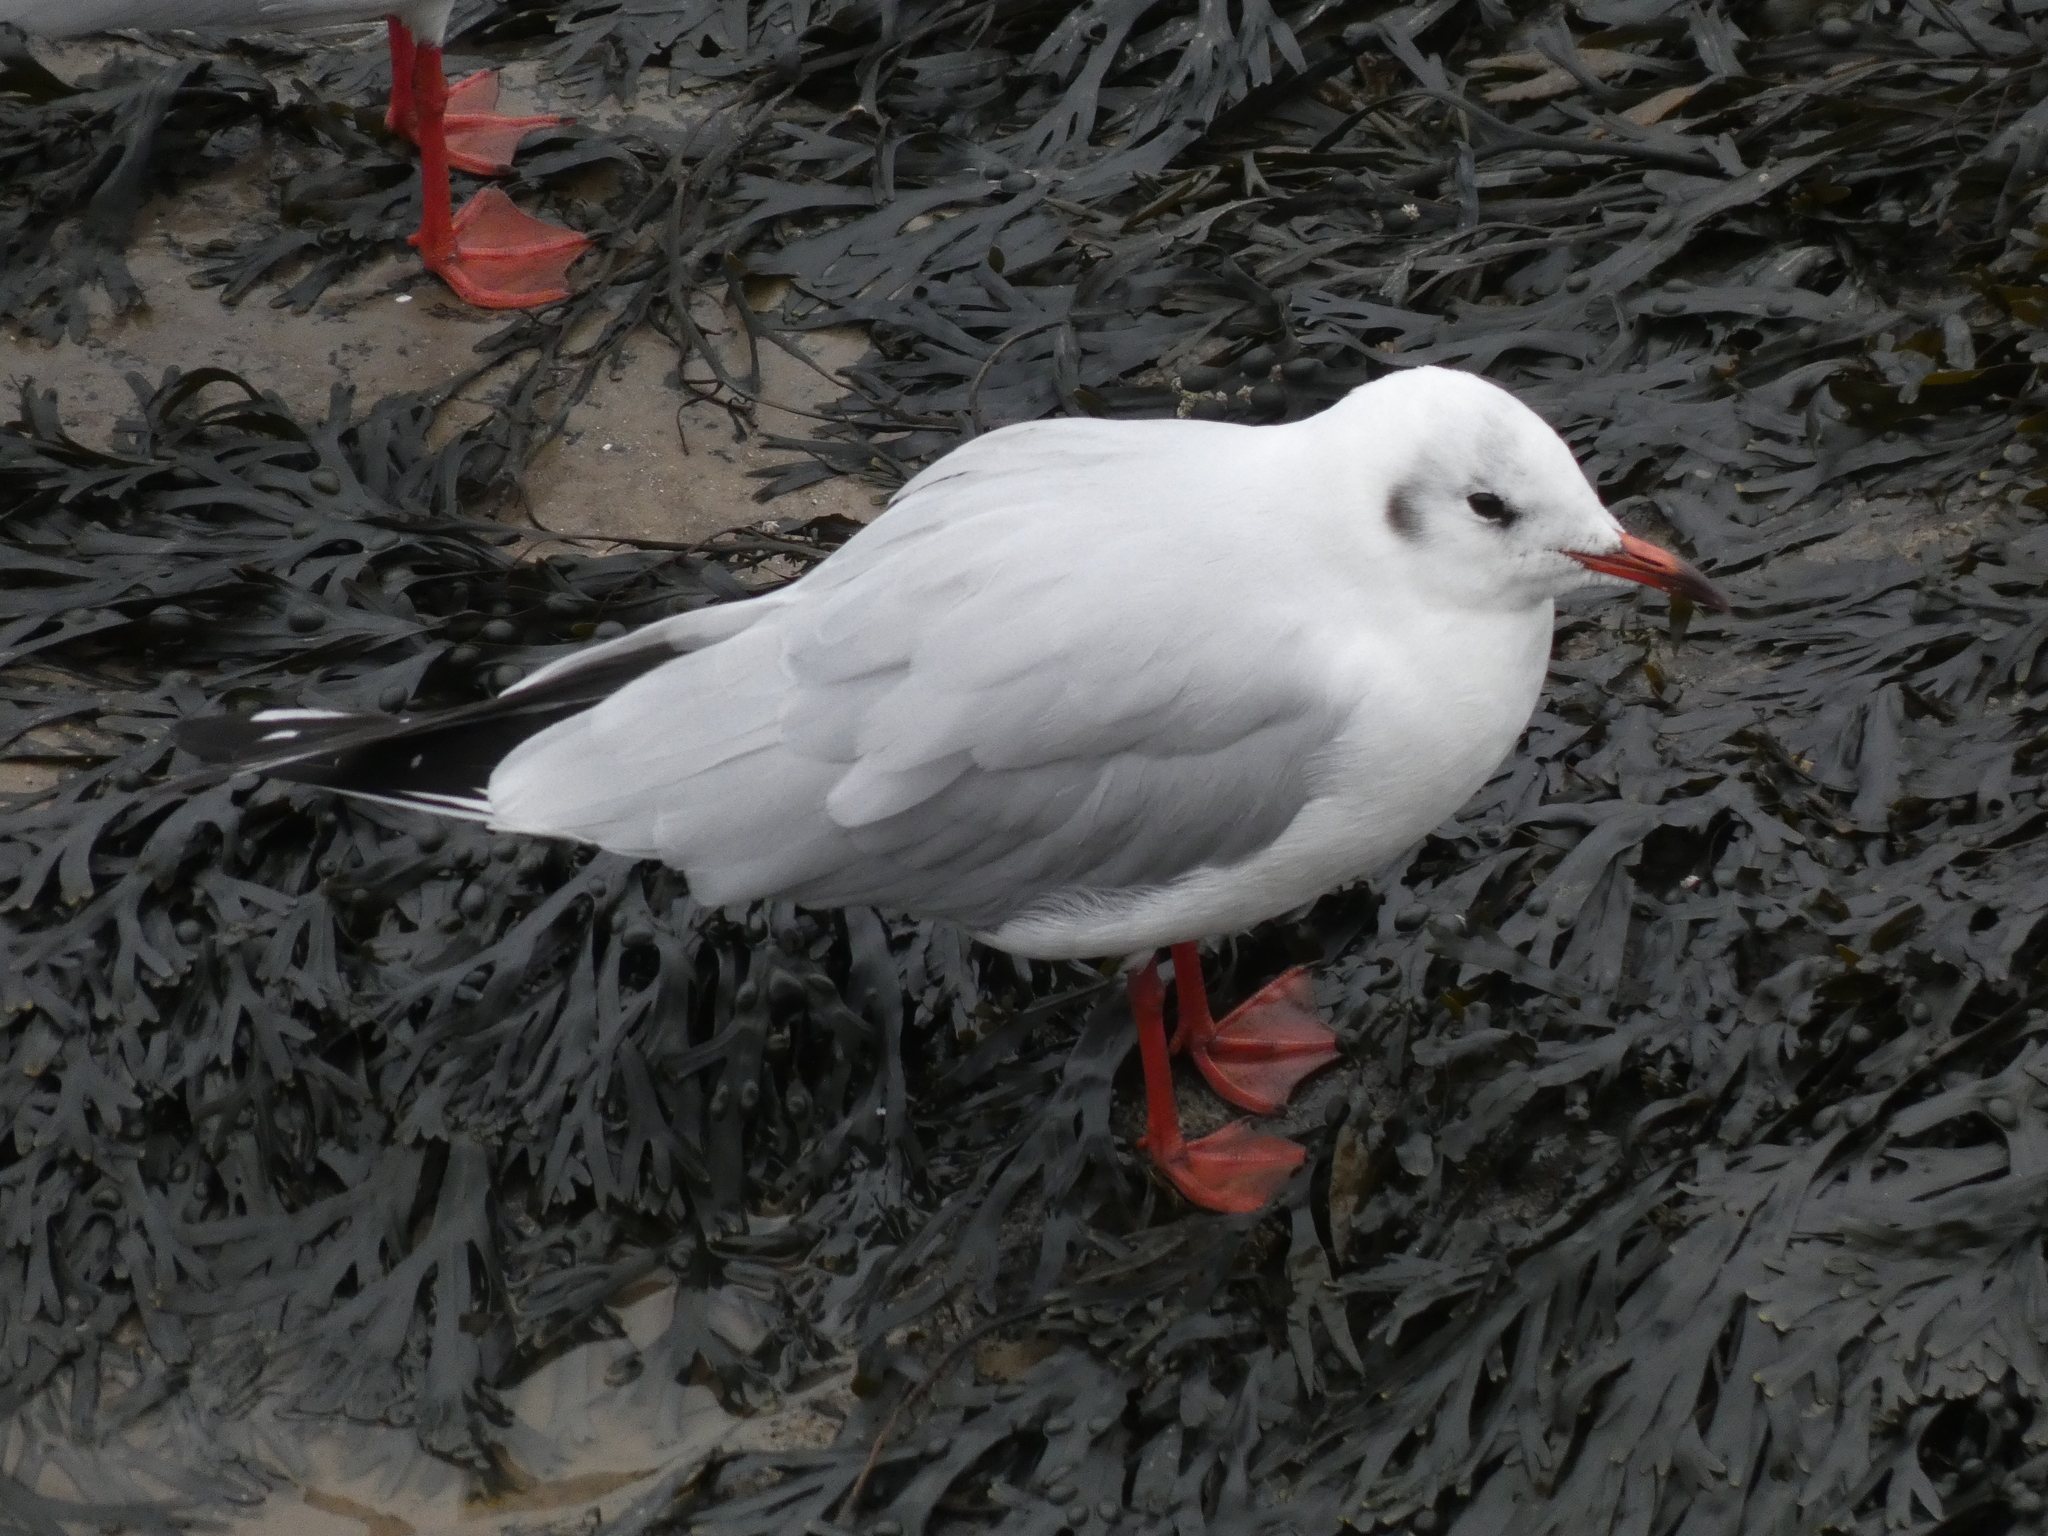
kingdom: Animalia
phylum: Chordata
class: Aves
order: Charadriiformes
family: Laridae
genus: Chroicocephalus
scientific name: Chroicocephalus ridibundus
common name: Black-headed gull
